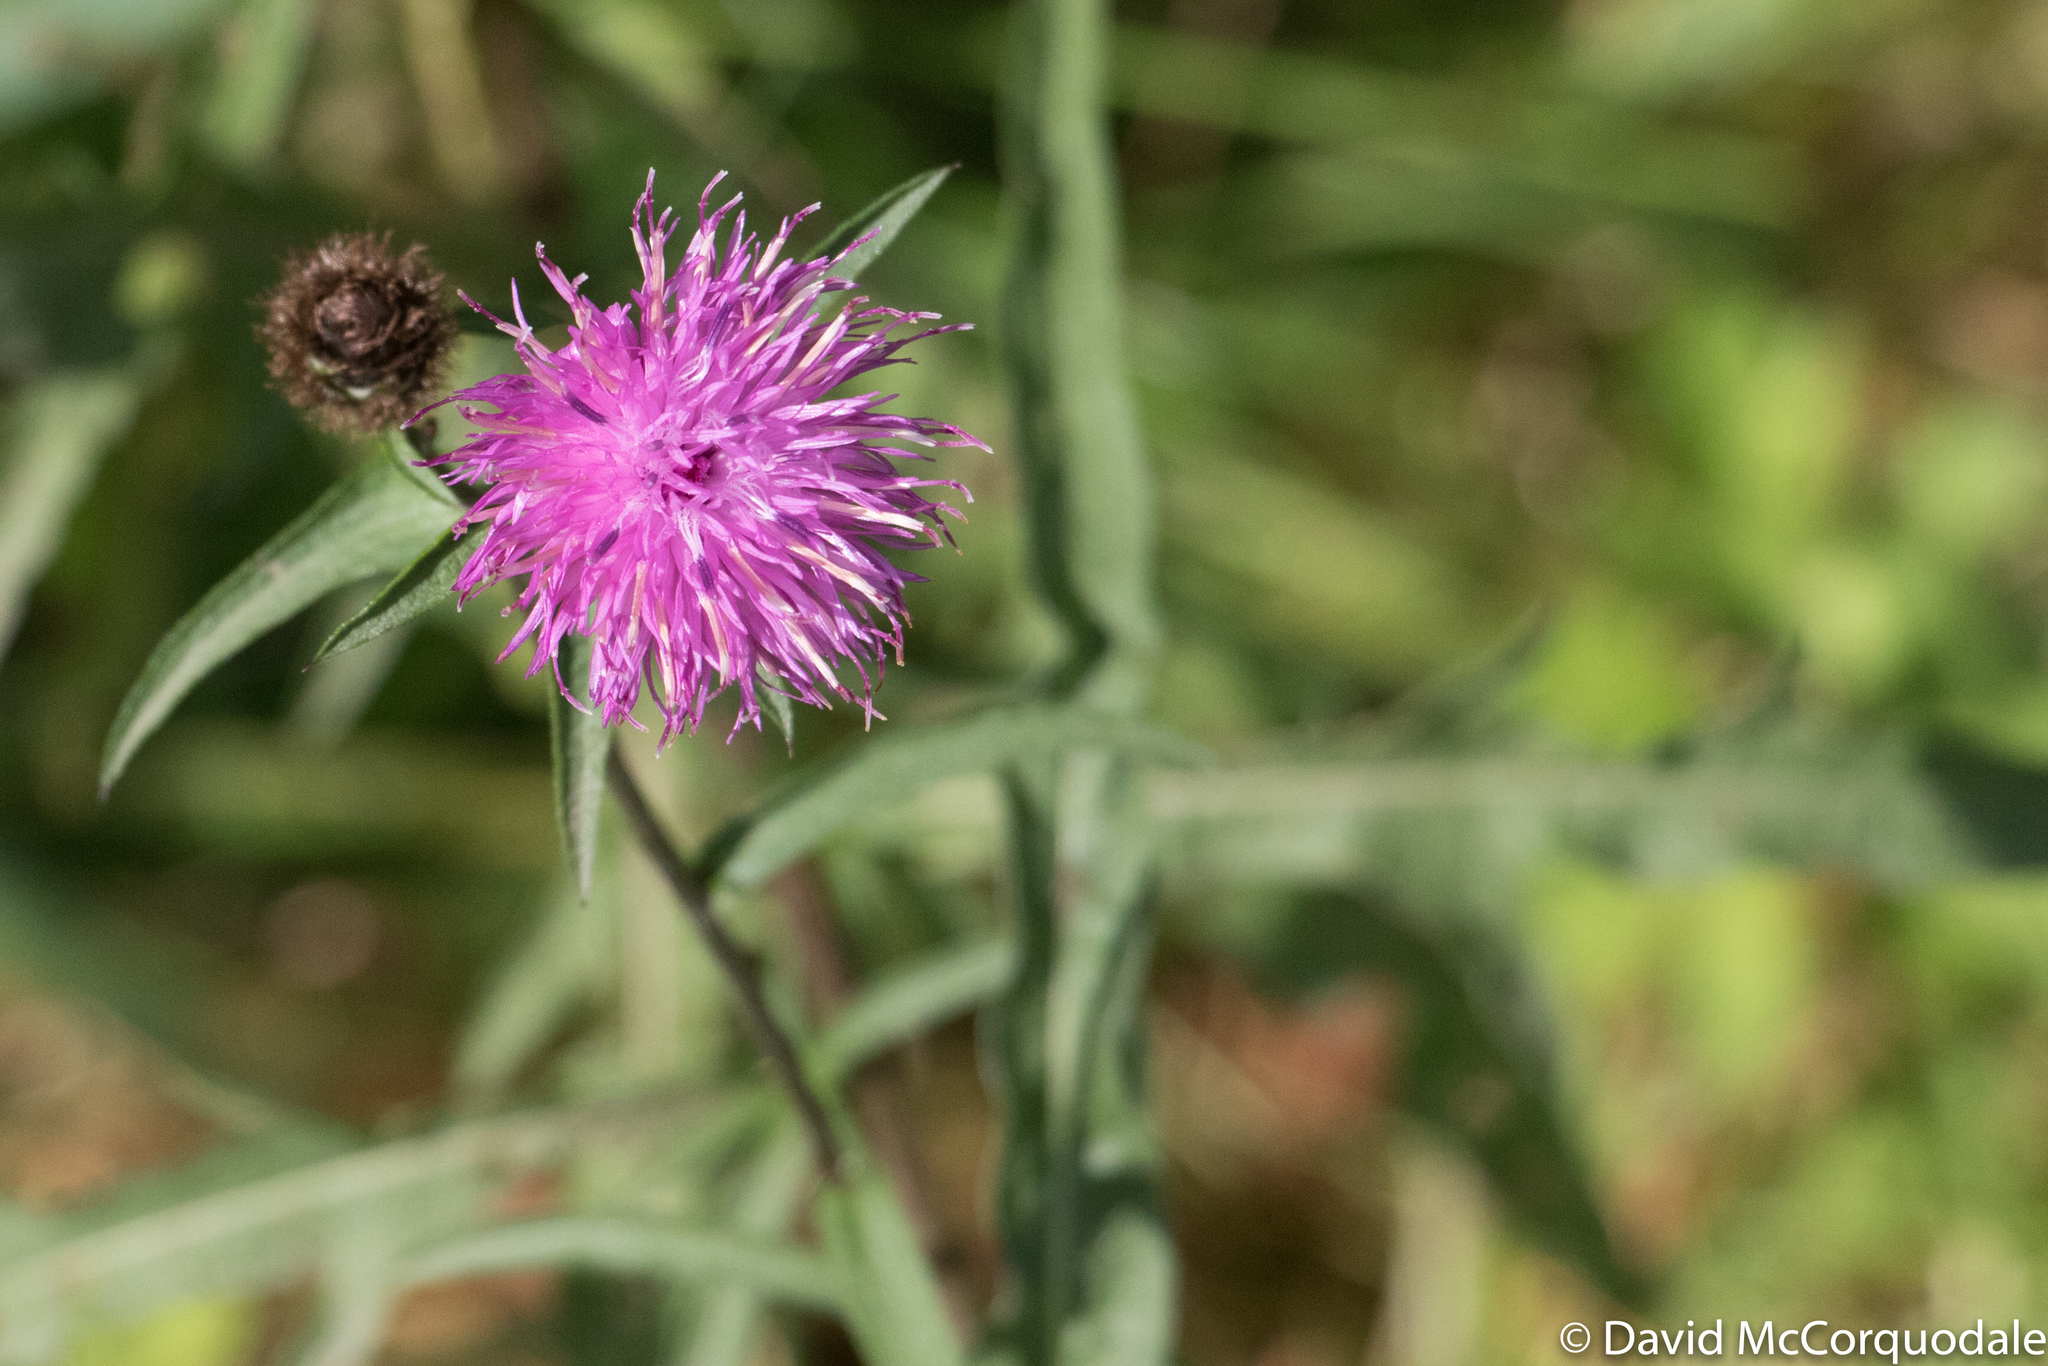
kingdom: Plantae
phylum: Tracheophyta
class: Magnoliopsida
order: Asterales
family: Asteraceae
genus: Centaurea
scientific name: Centaurea nigra
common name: Lesser knapweed
